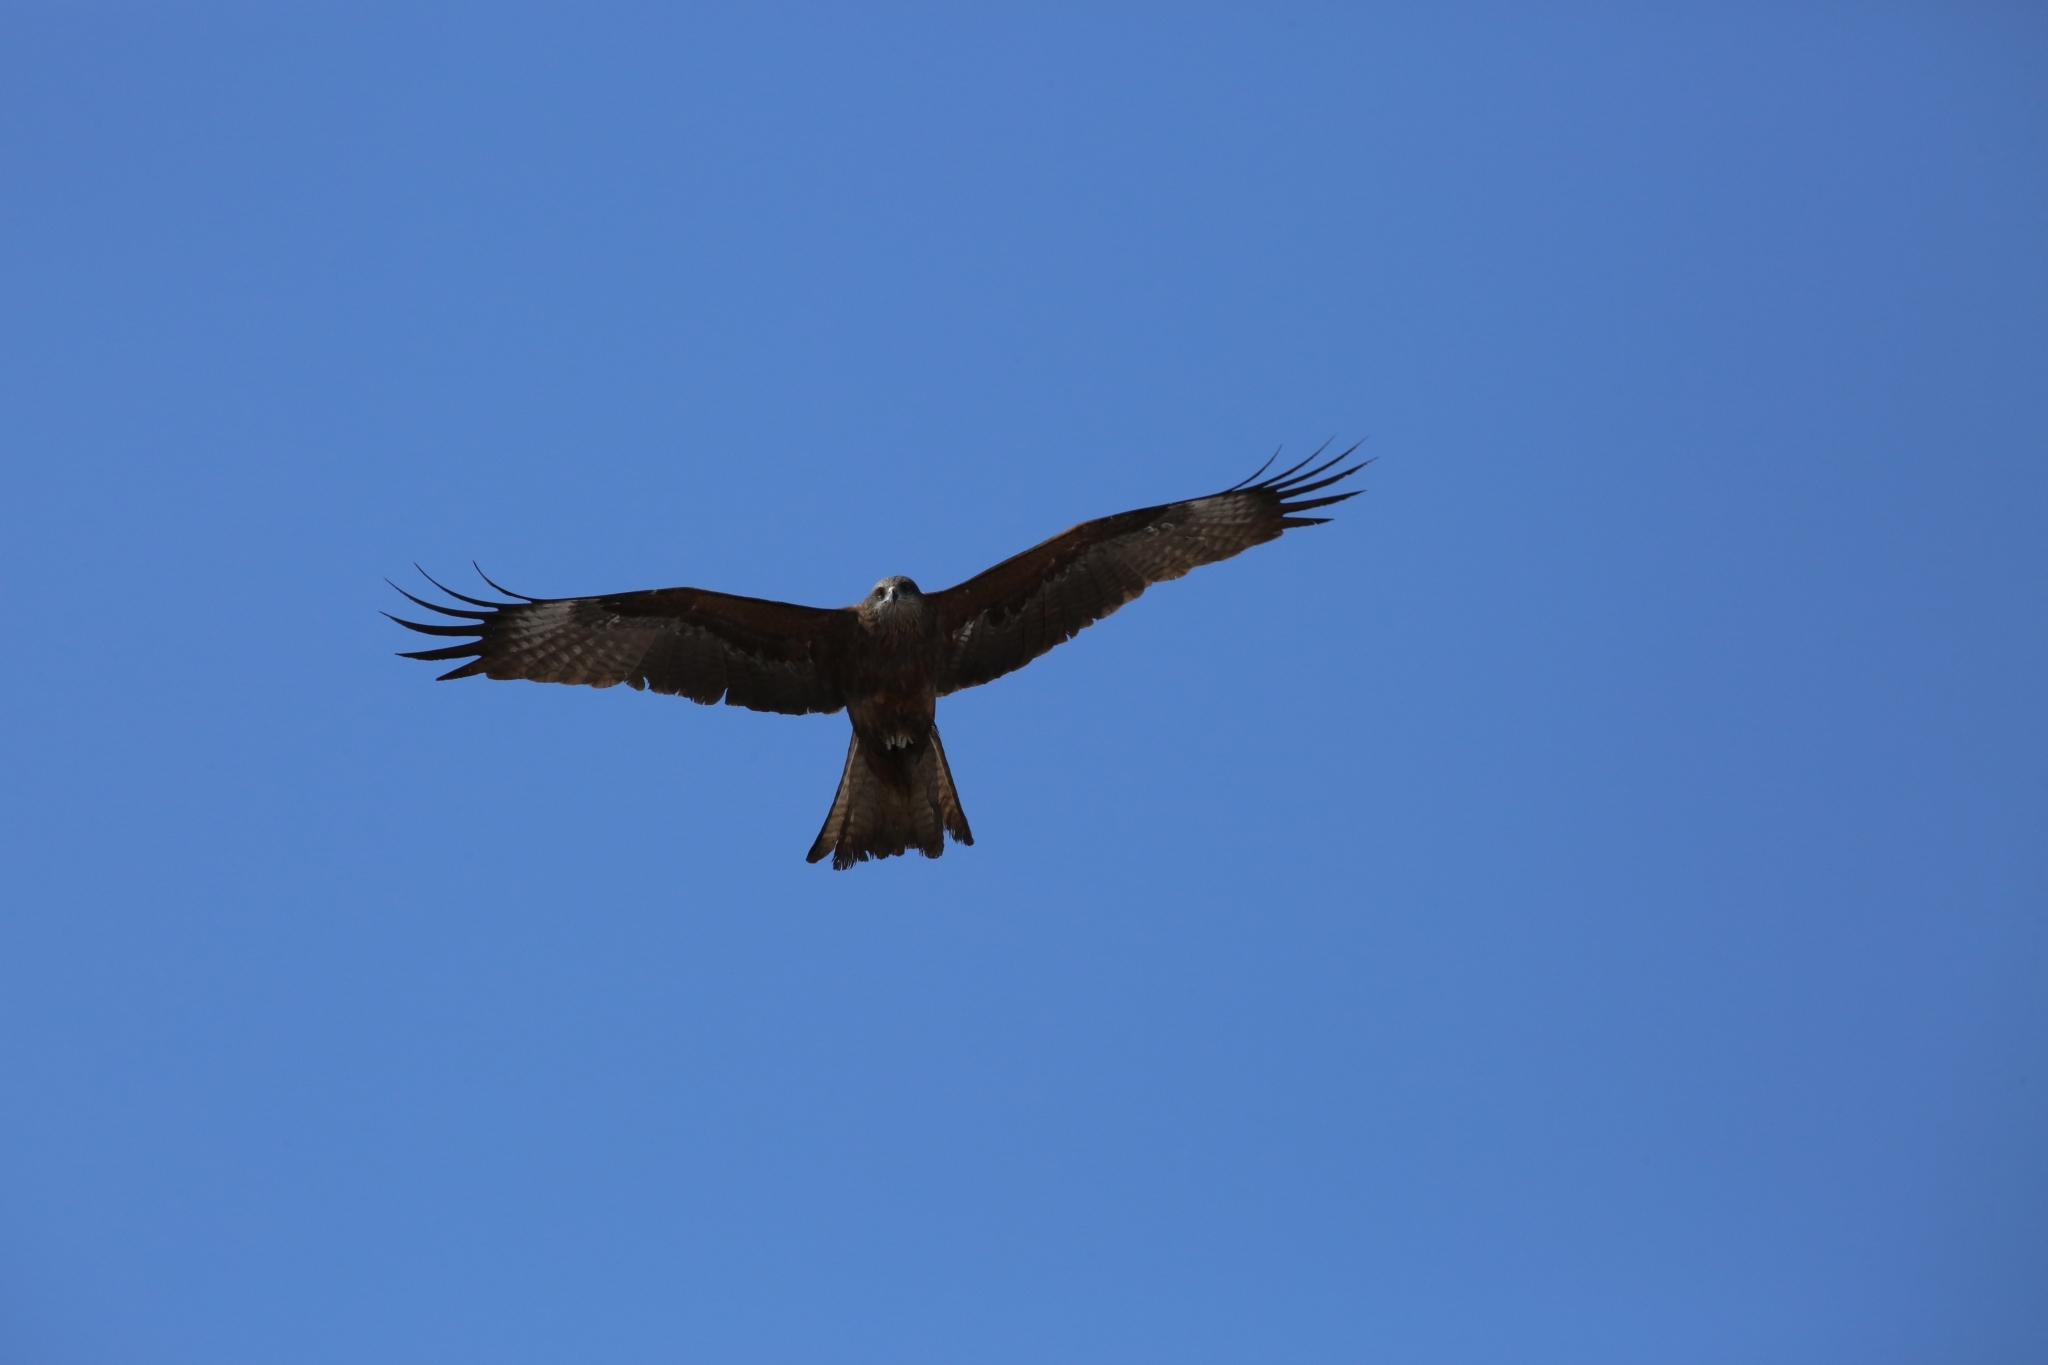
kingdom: Animalia
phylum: Chordata
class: Aves
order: Accipitriformes
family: Accipitridae
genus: Milvus
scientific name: Milvus migrans
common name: Black kite
